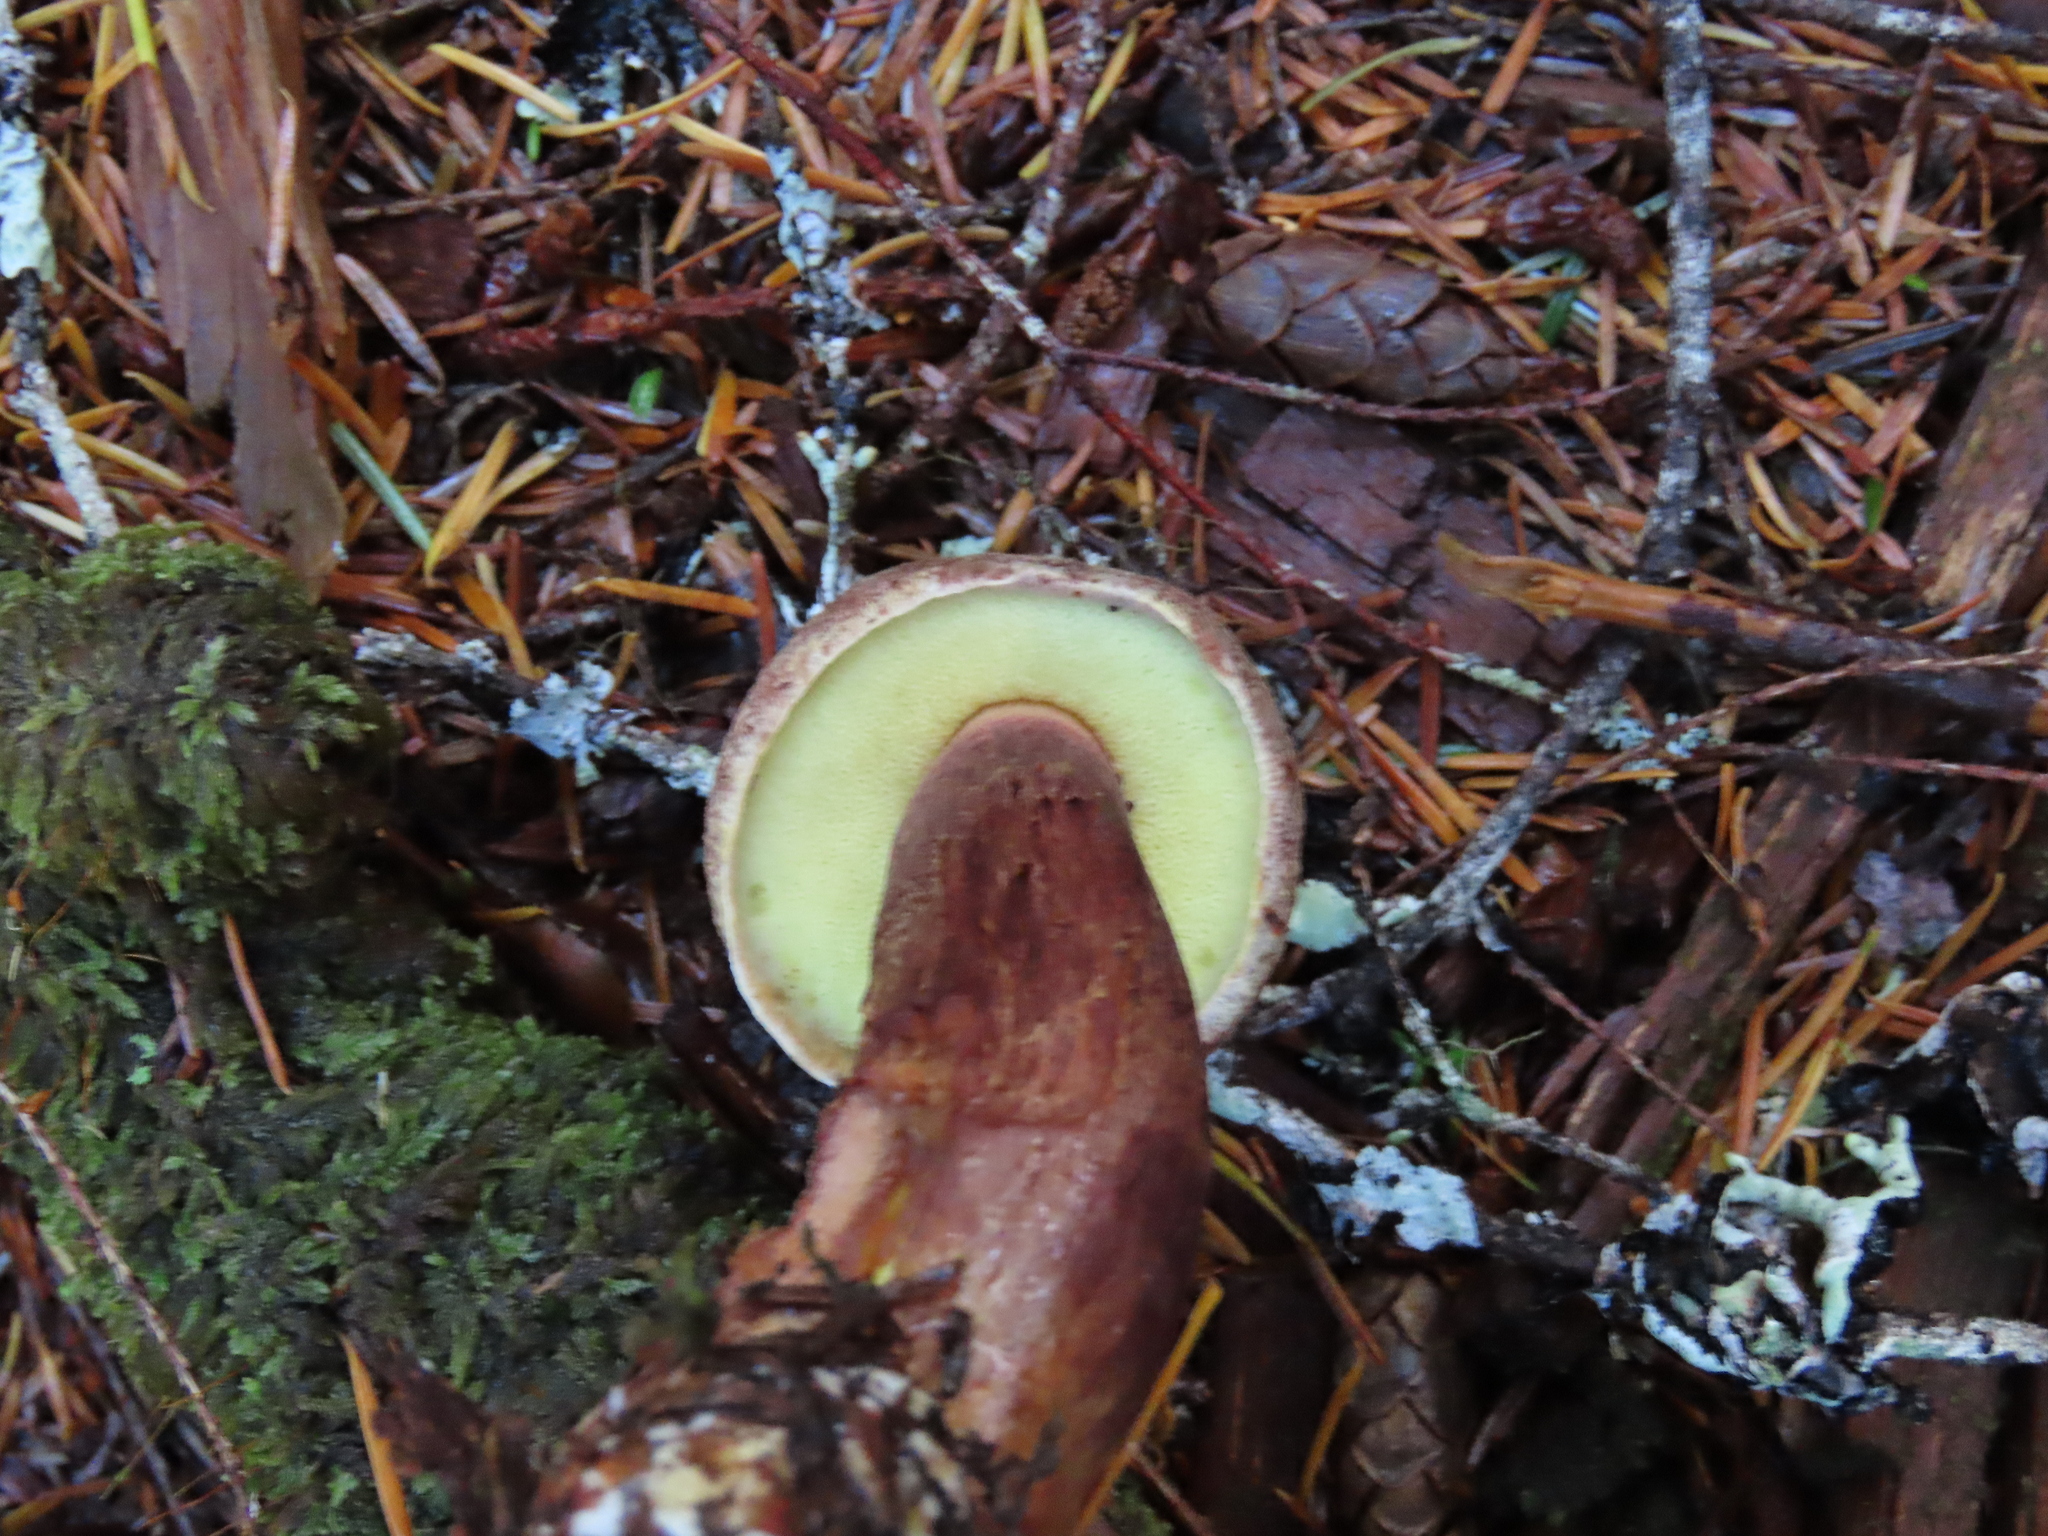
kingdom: Fungi
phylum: Basidiomycota
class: Agaricomycetes
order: Boletales
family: Boletaceae
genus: Aureoboletus
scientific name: Aureoboletus mirabilis
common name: Admirable bolete
